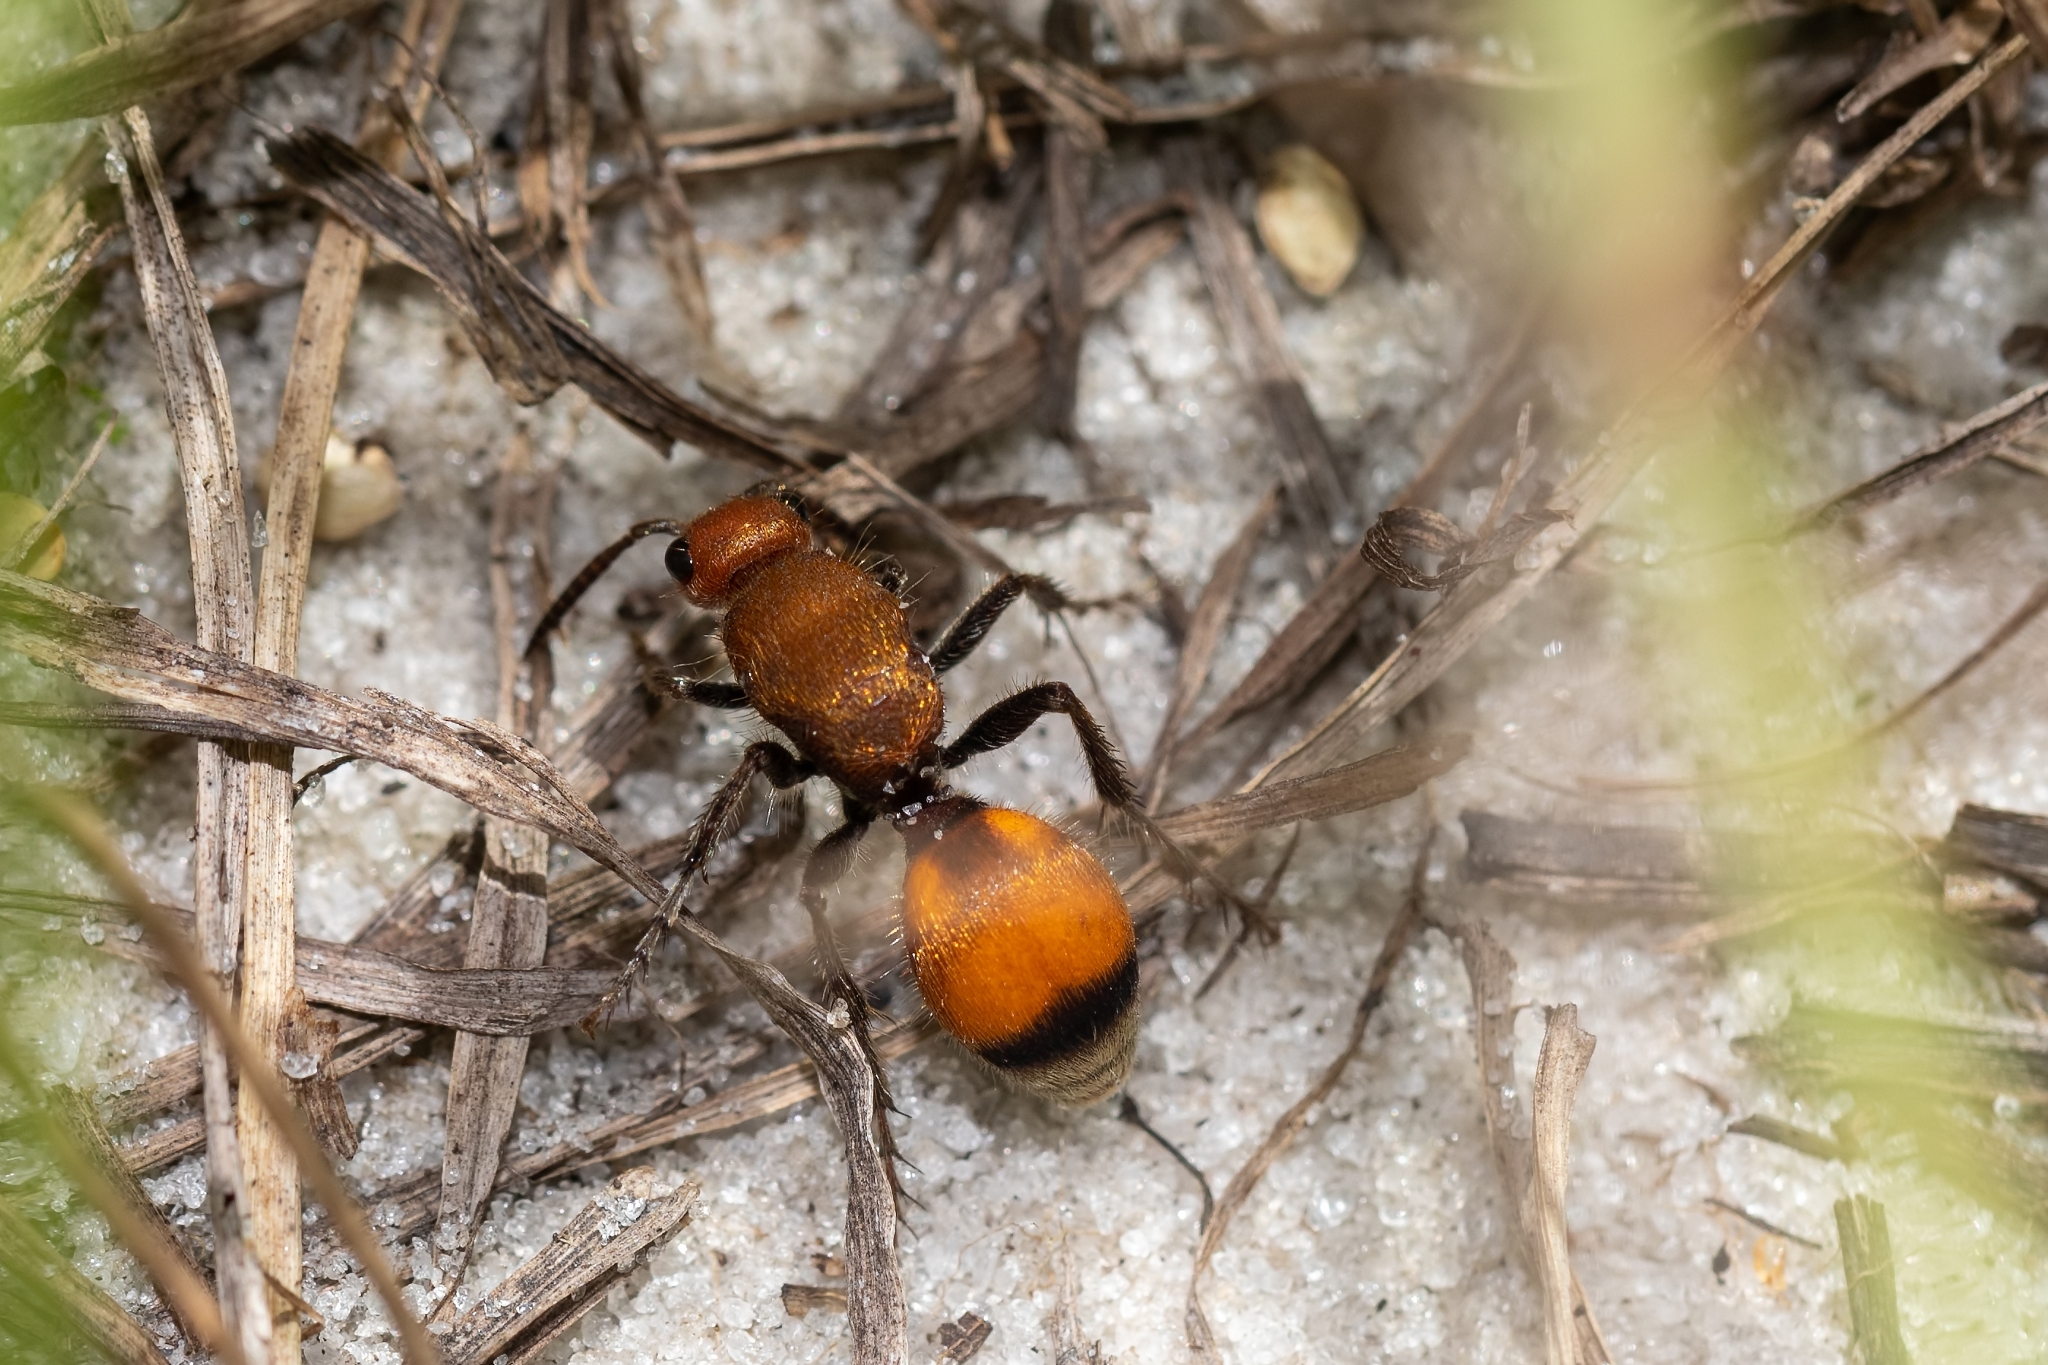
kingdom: Animalia
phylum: Arthropoda
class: Insecta
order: Hymenoptera
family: Mutillidae
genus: Dasymutilla
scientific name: Dasymutilla
